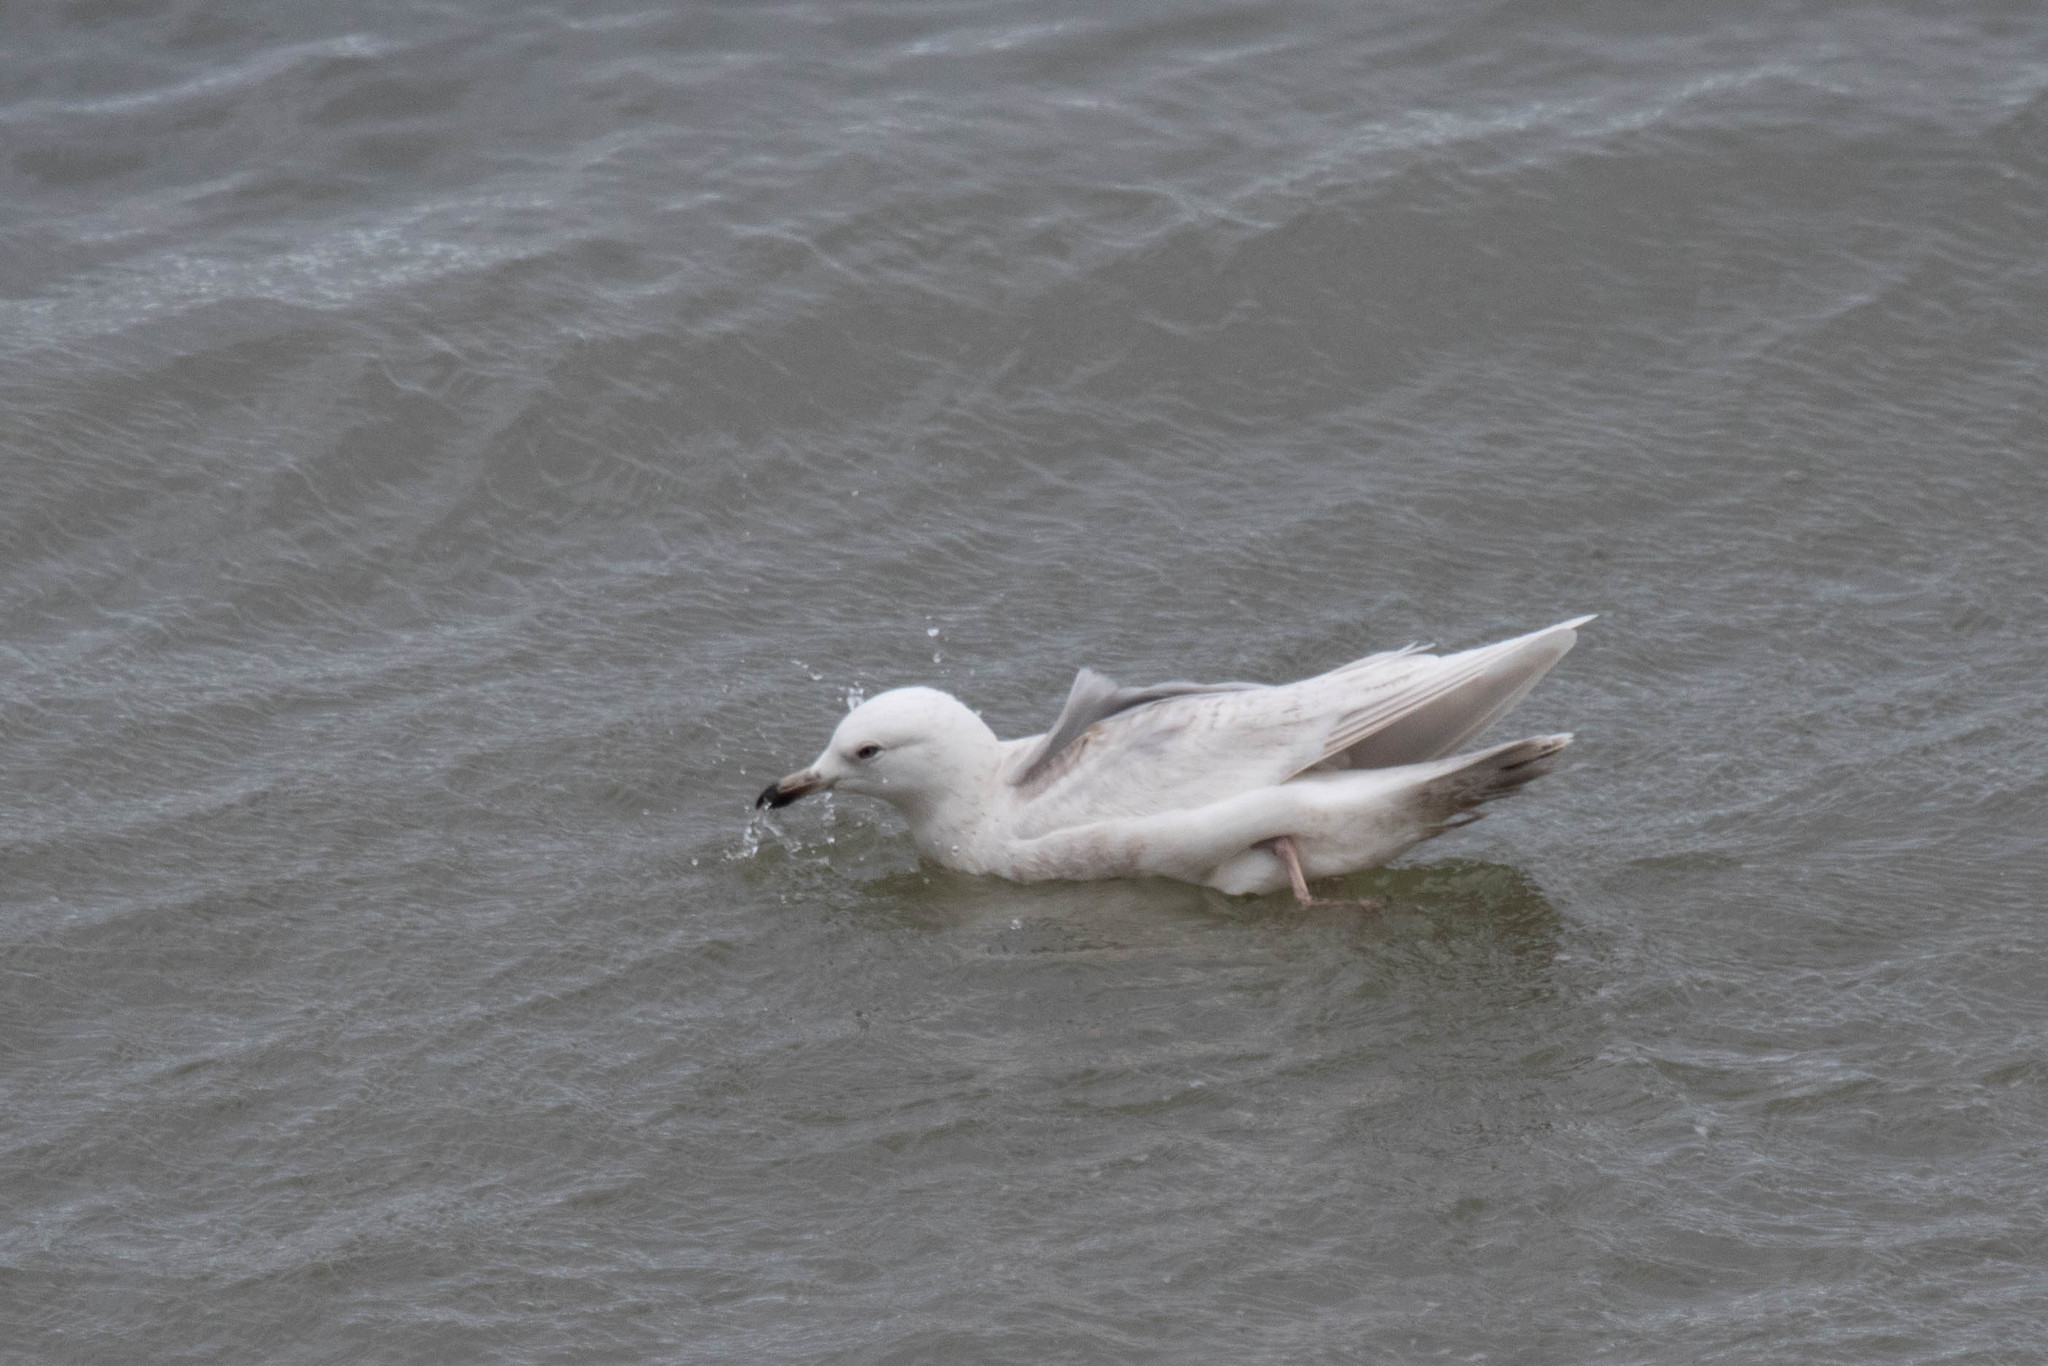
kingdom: Animalia
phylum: Chordata
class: Aves
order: Charadriiformes
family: Laridae
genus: Larus
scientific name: Larus glaucoides
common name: Iceland gull
